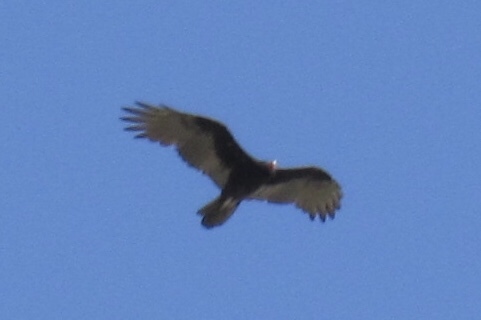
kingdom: Animalia
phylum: Chordata
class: Aves
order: Accipitriformes
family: Cathartidae
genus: Cathartes
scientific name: Cathartes aura
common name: Turkey vulture
